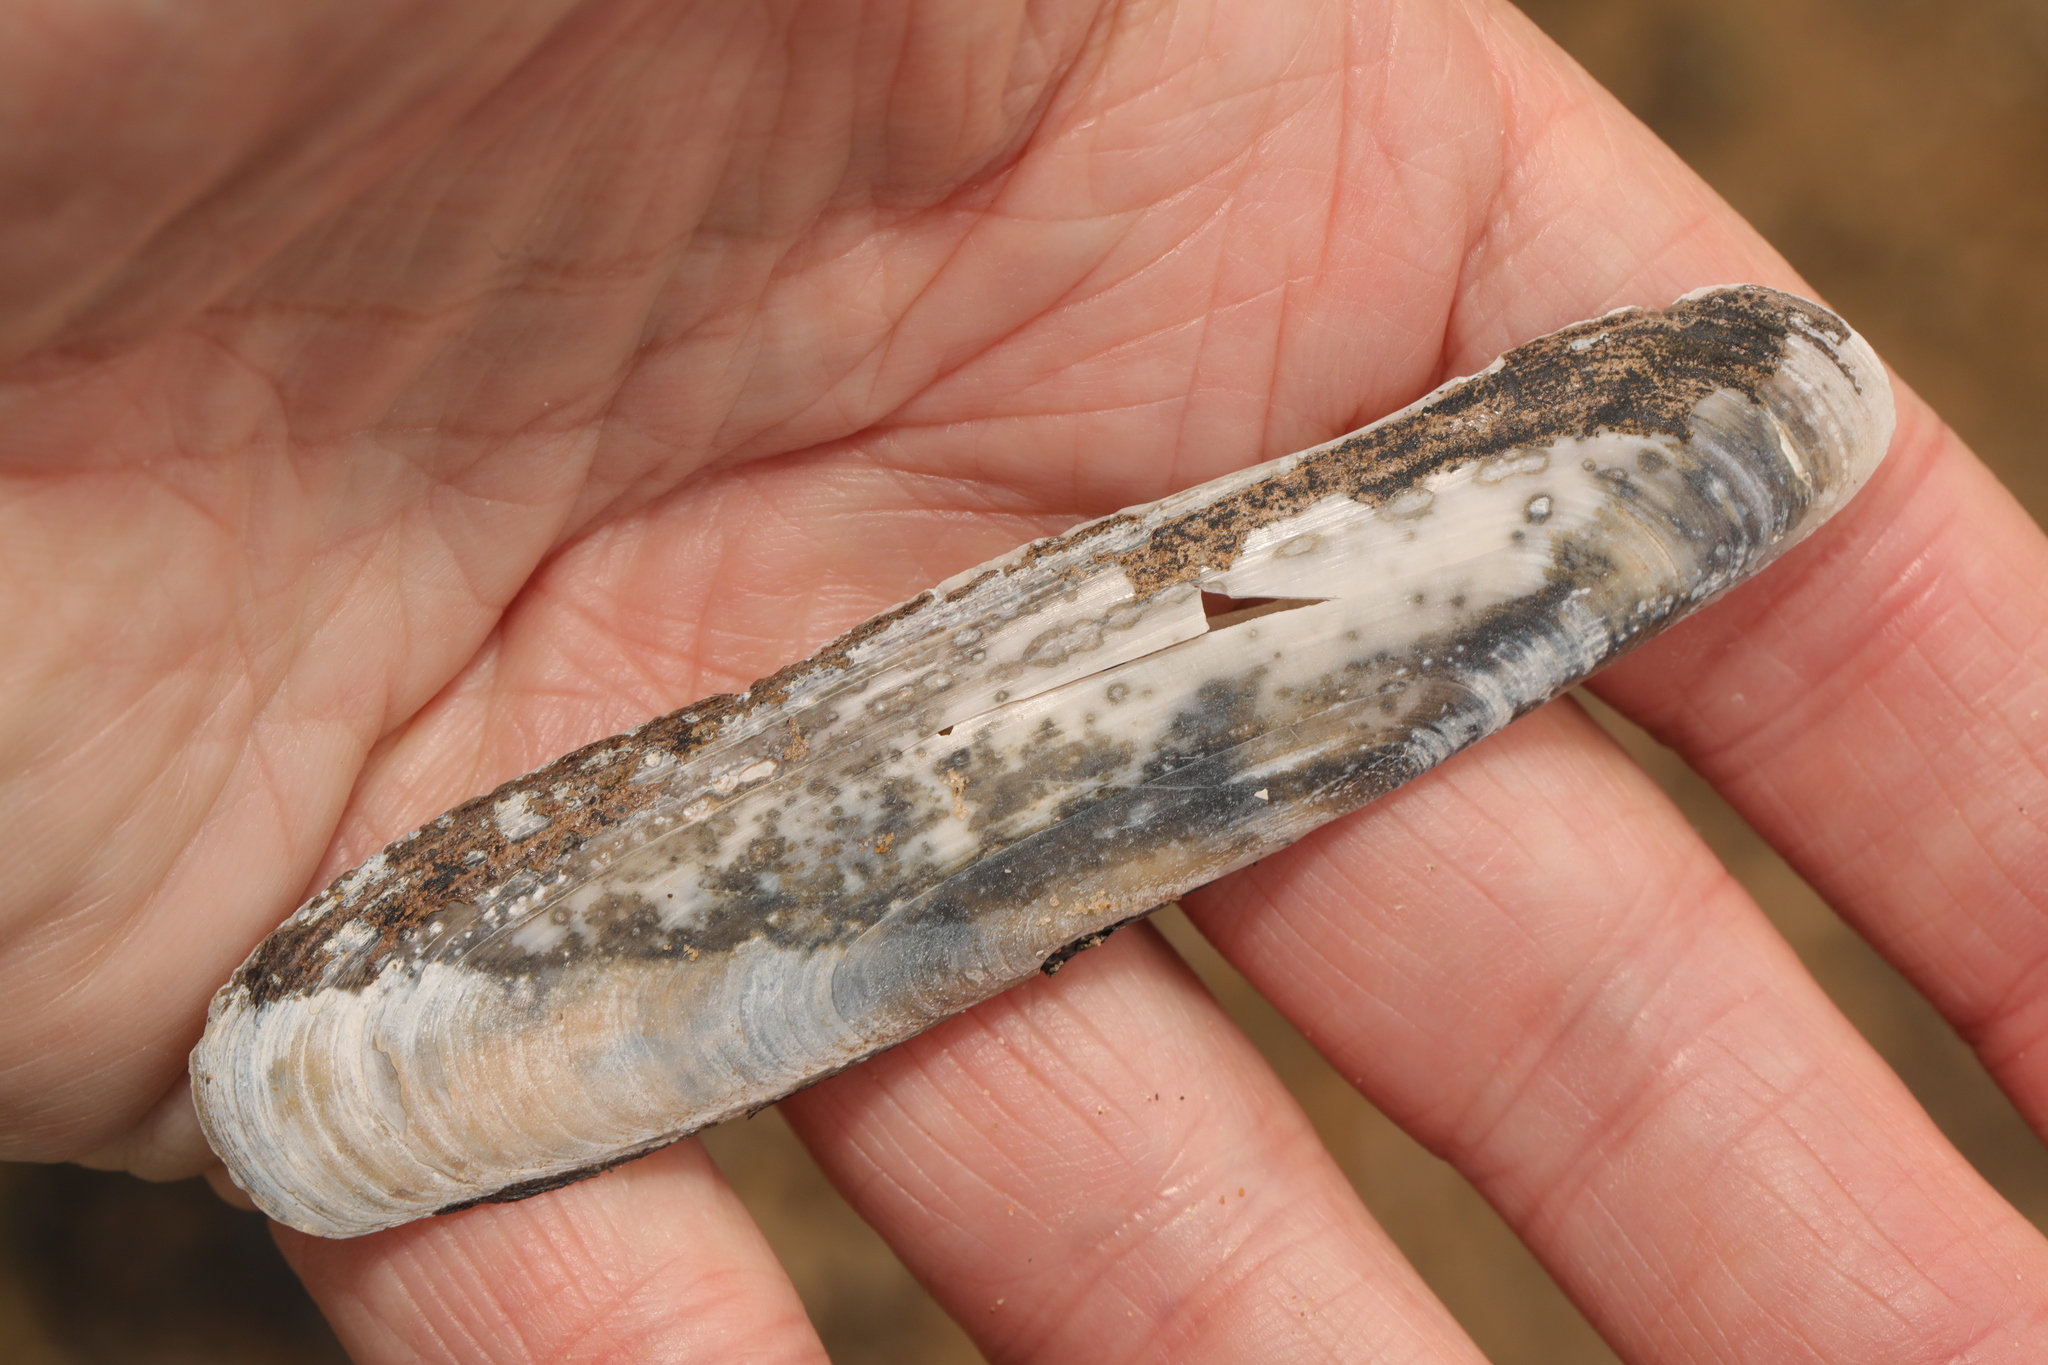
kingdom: Animalia
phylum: Mollusca
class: Bivalvia
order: Adapedonta
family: Pharidae
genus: Pharus
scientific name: Pharus legumen
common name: Bean razor clam
